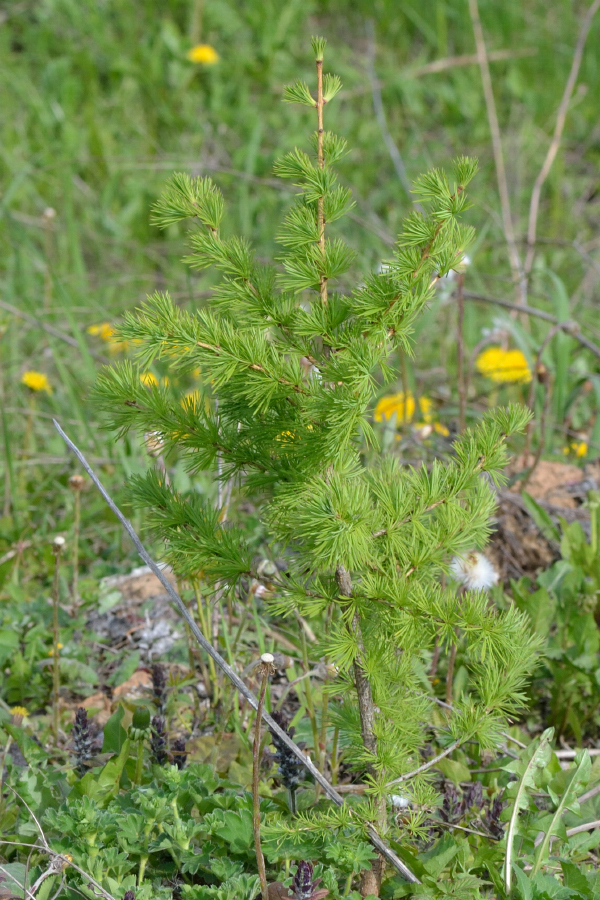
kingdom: Plantae
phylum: Tracheophyta
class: Pinopsida
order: Pinales
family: Pinaceae
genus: Larix
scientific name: Larix decidua
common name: European larch
